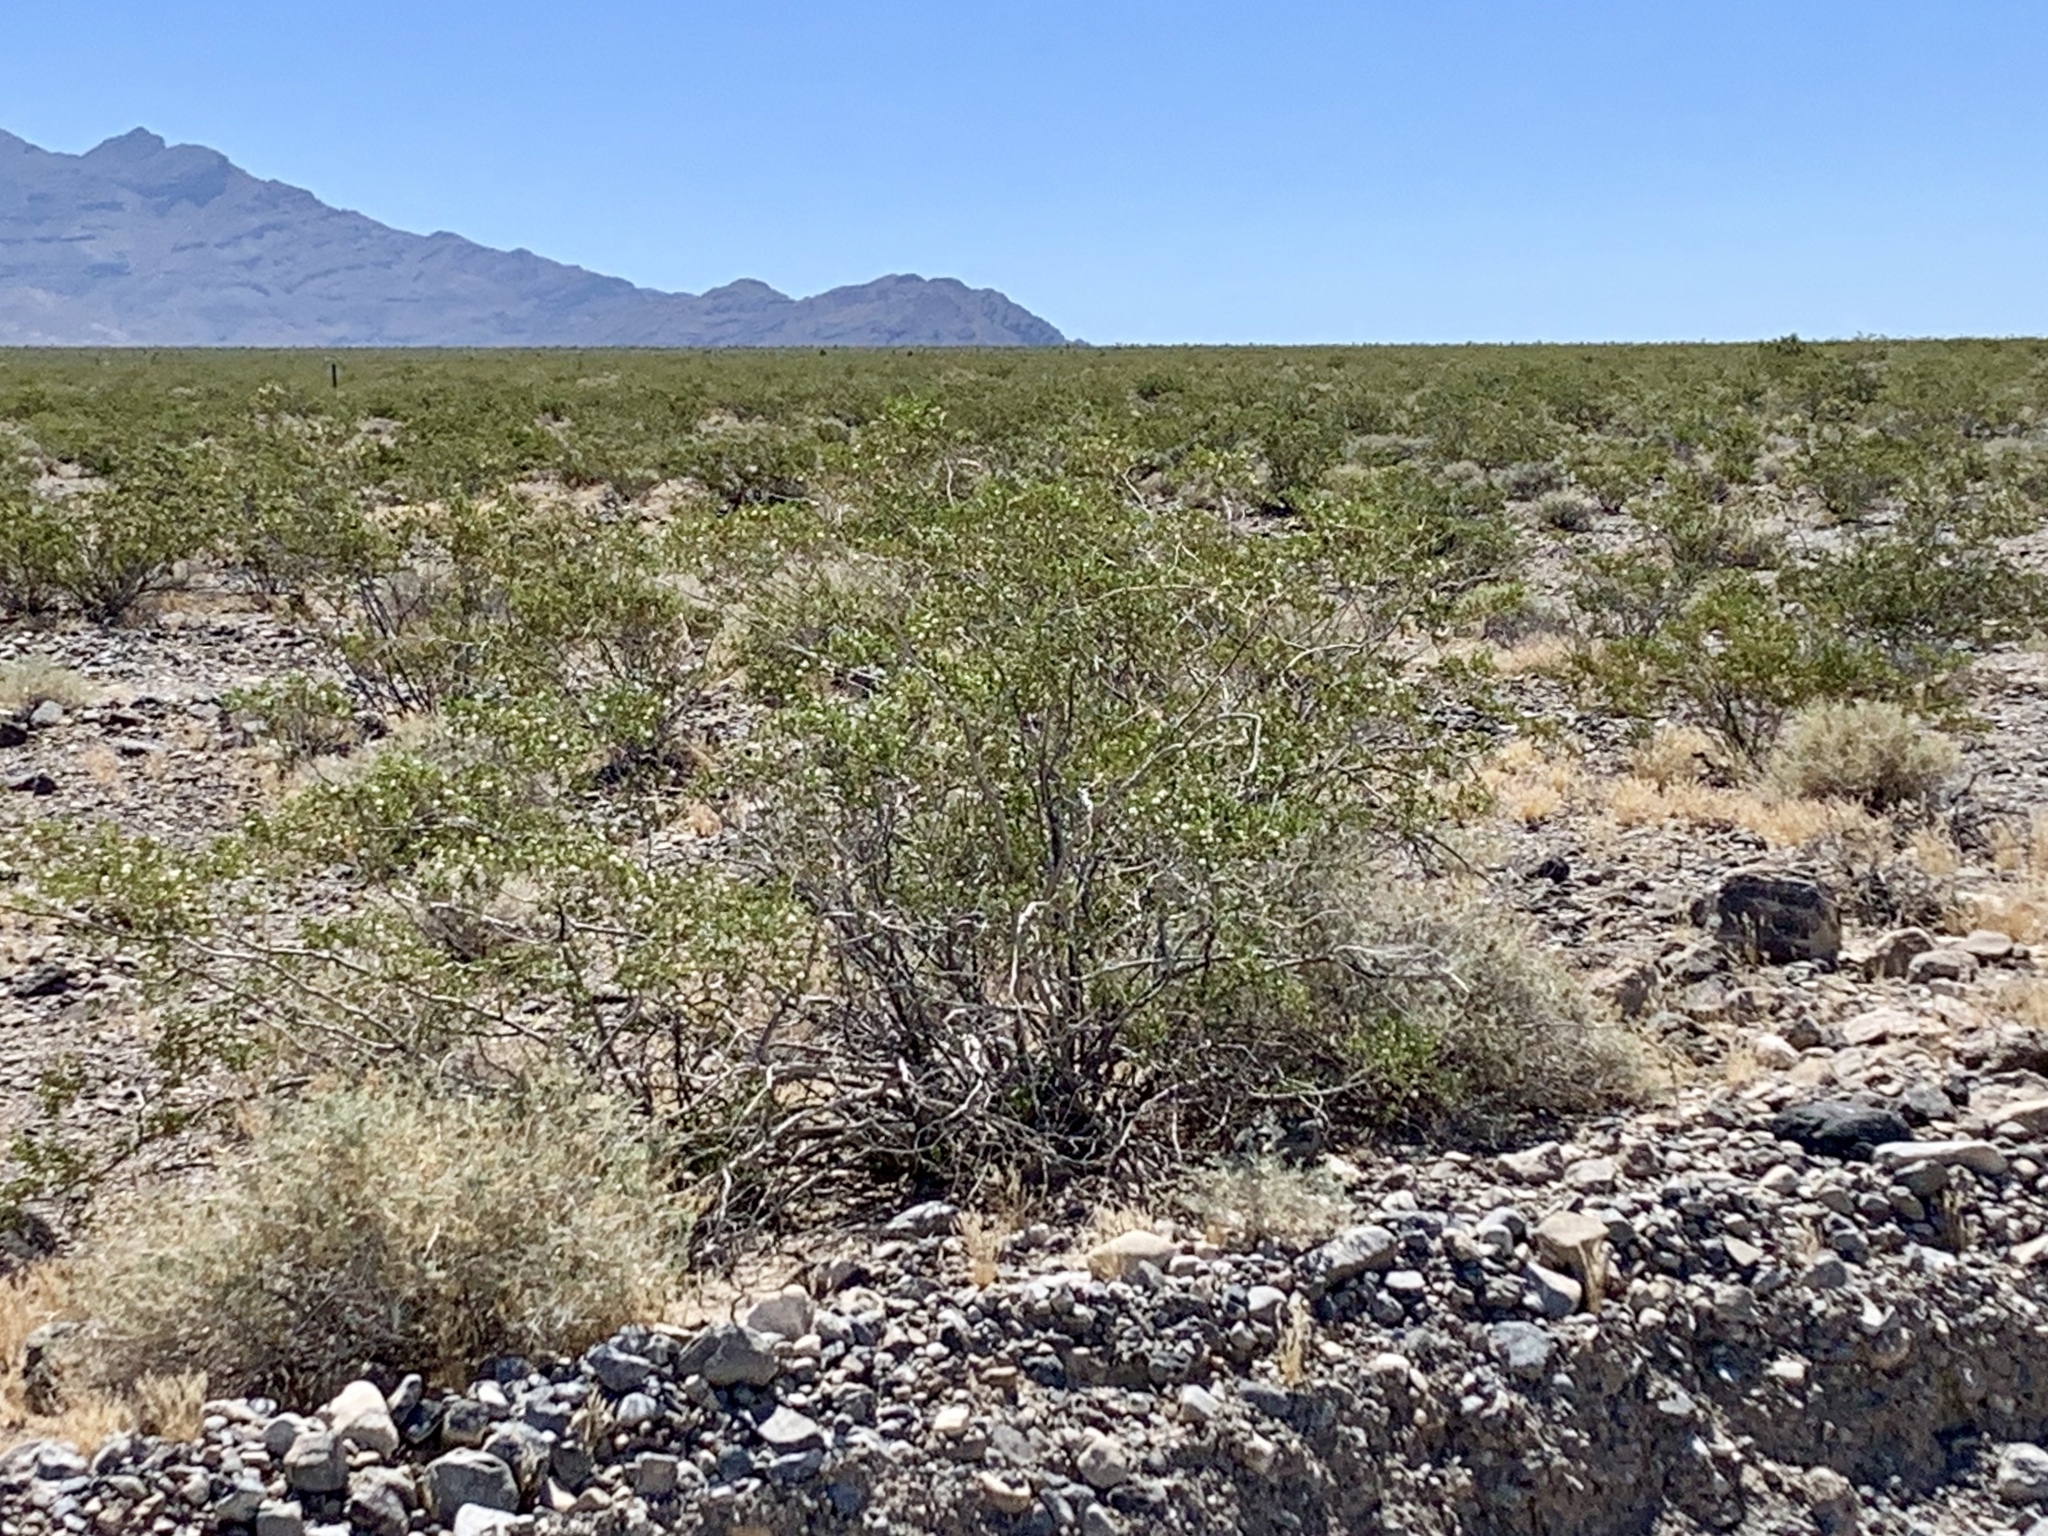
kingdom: Plantae
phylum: Tracheophyta
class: Magnoliopsida
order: Zygophyllales
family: Zygophyllaceae
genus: Larrea
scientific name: Larrea tridentata
